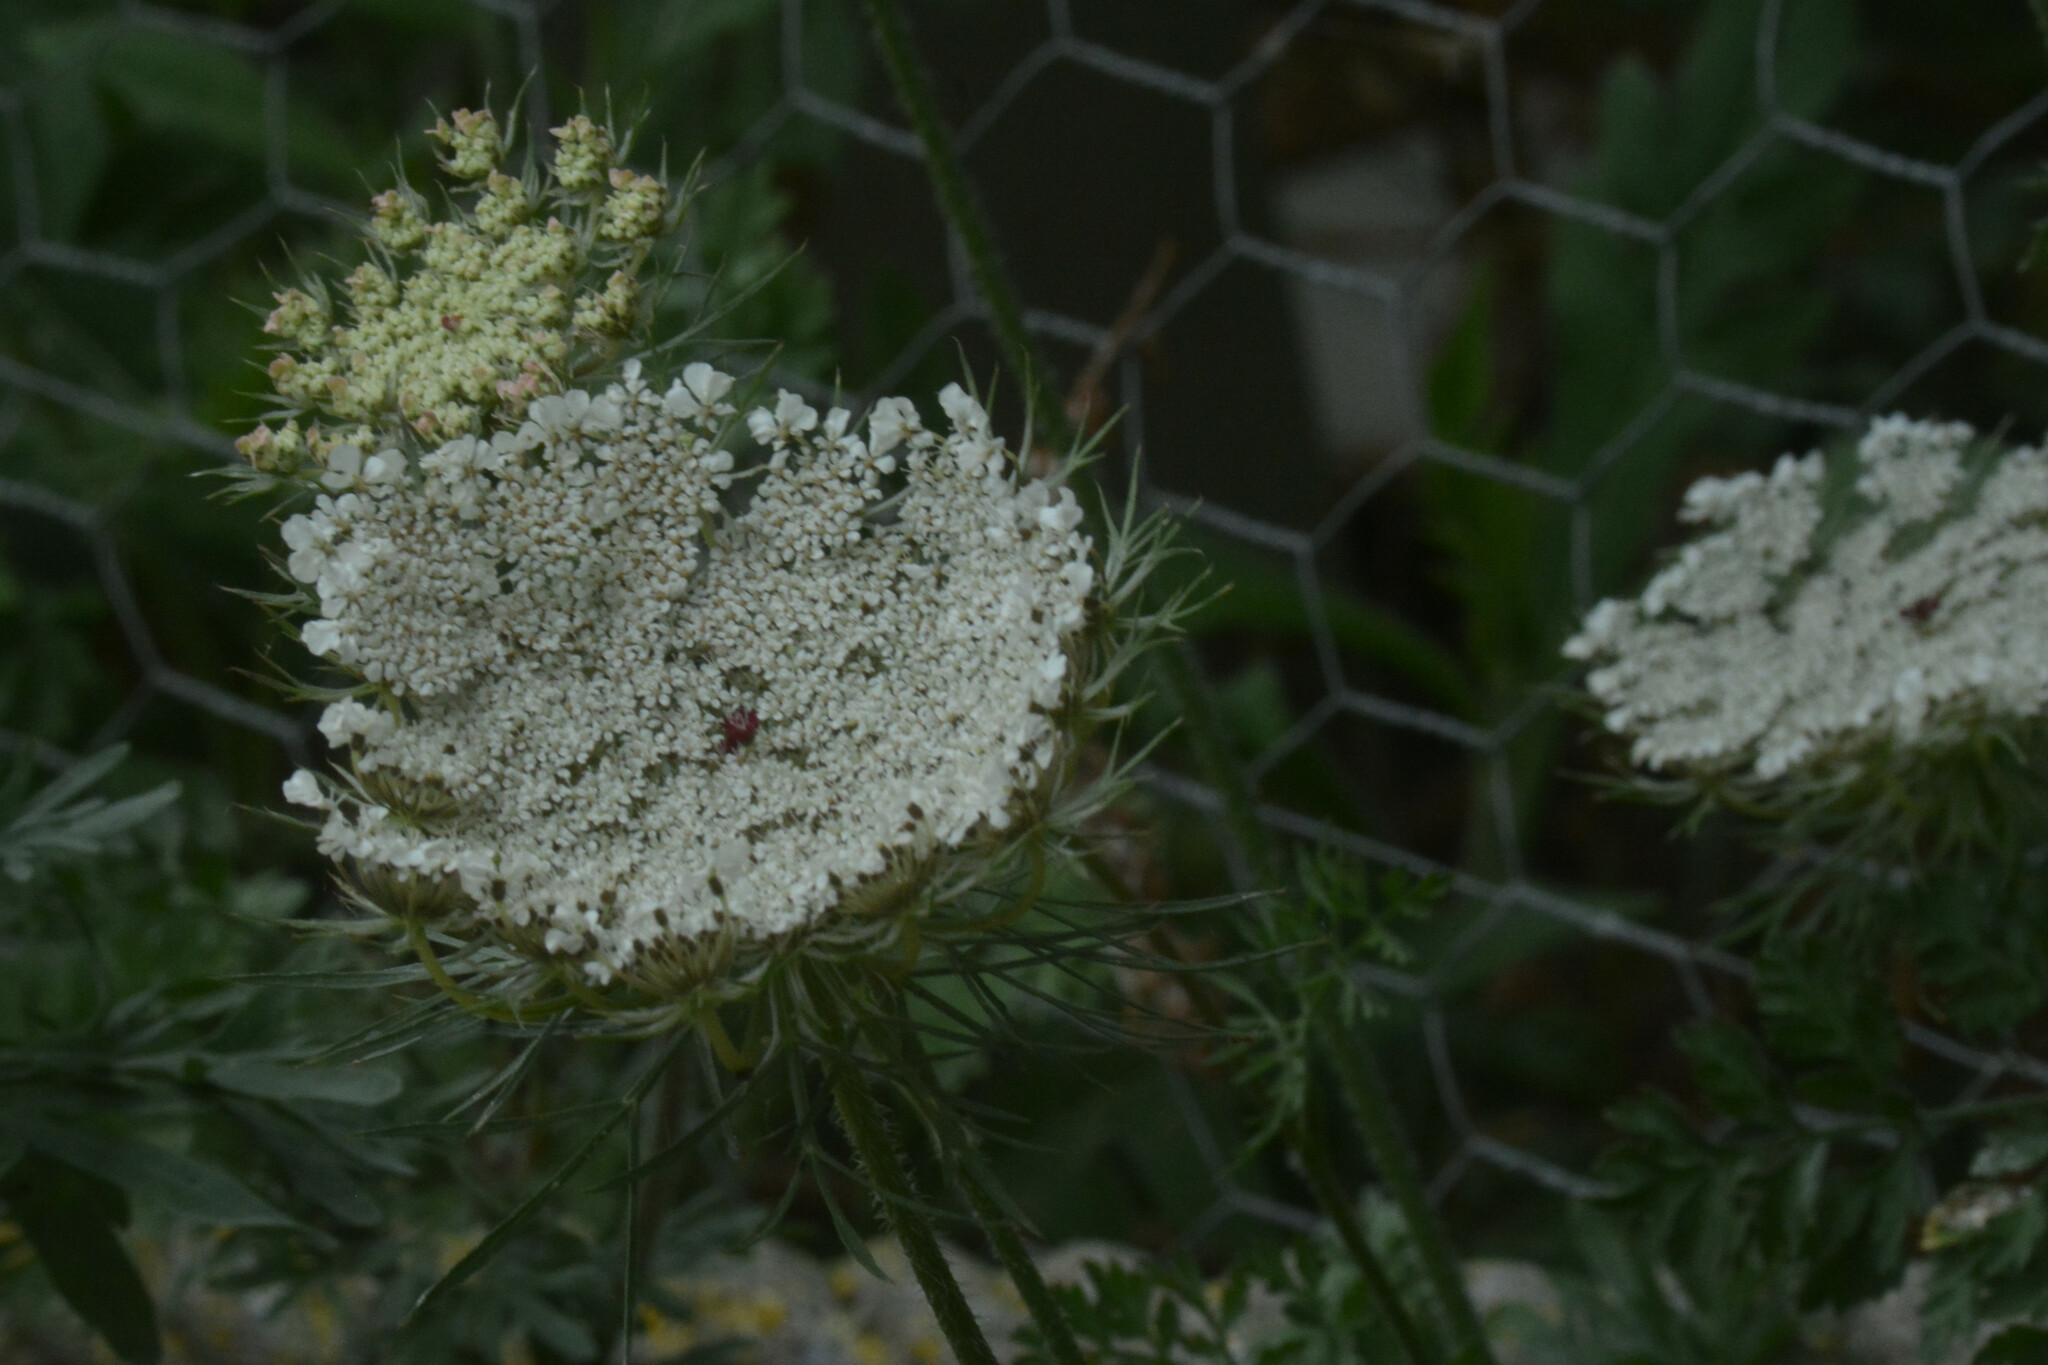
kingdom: Plantae
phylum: Tracheophyta
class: Magnoliopsida
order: Apiales
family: Apiaceae
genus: Daucus
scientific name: Daucus carota
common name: Wild carrot
